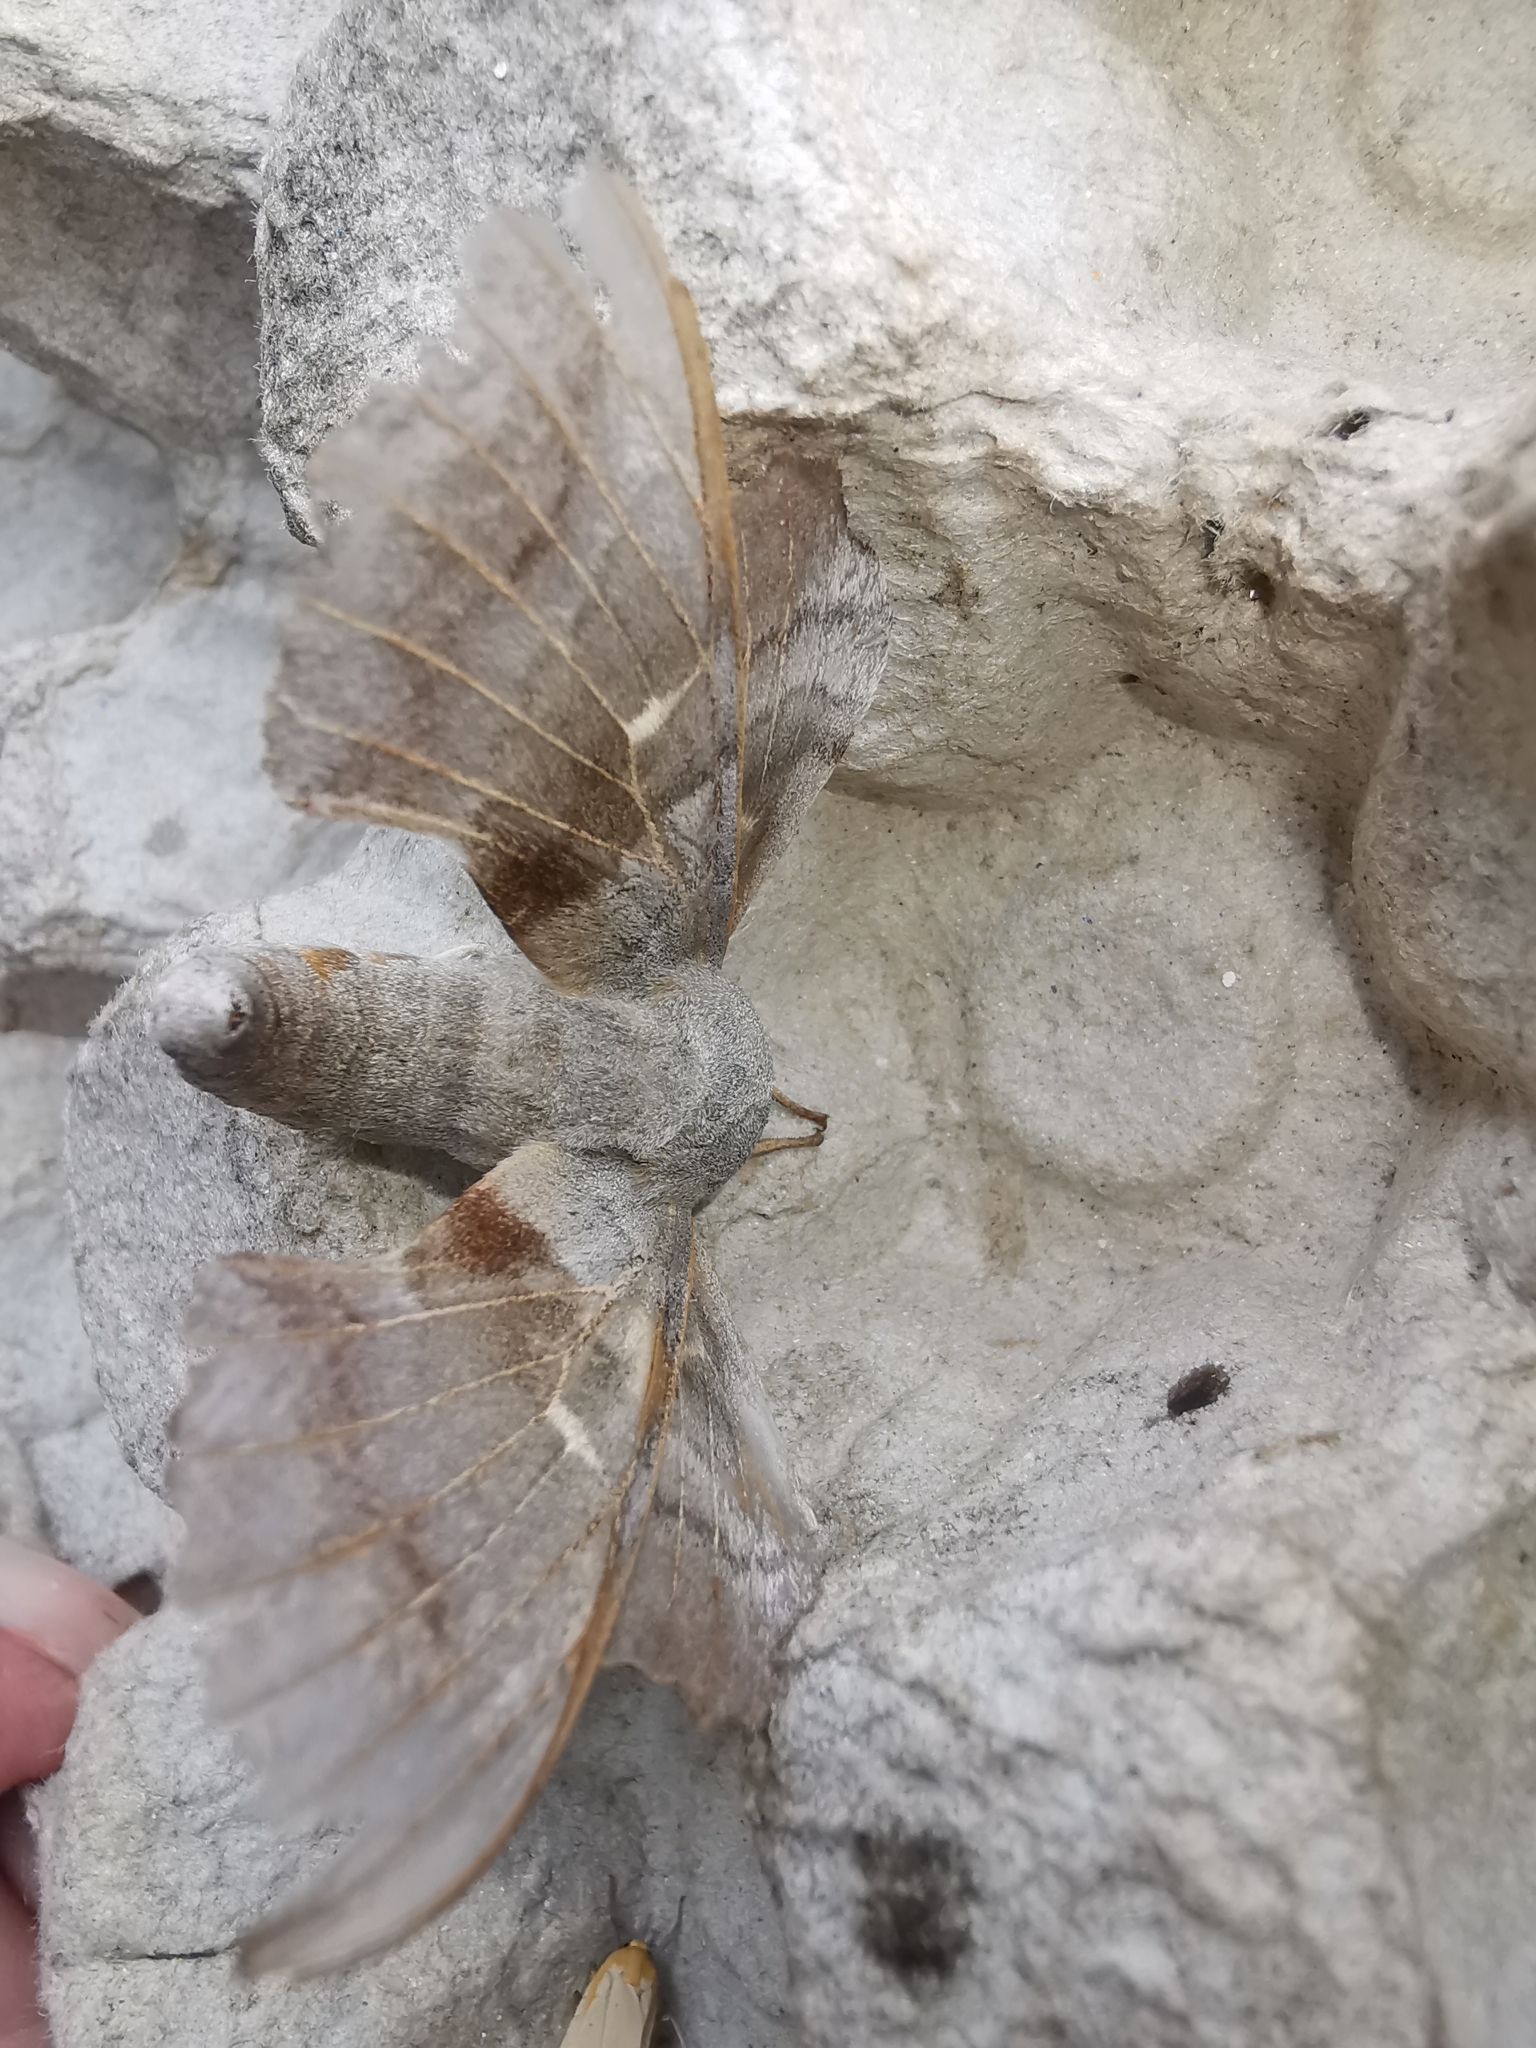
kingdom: Animalia
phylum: Arthropoda
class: Insecta
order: Lepidoptera
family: Sphingidae
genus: Laothoe
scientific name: Laothoe populi
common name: Poplar hawk-moth
